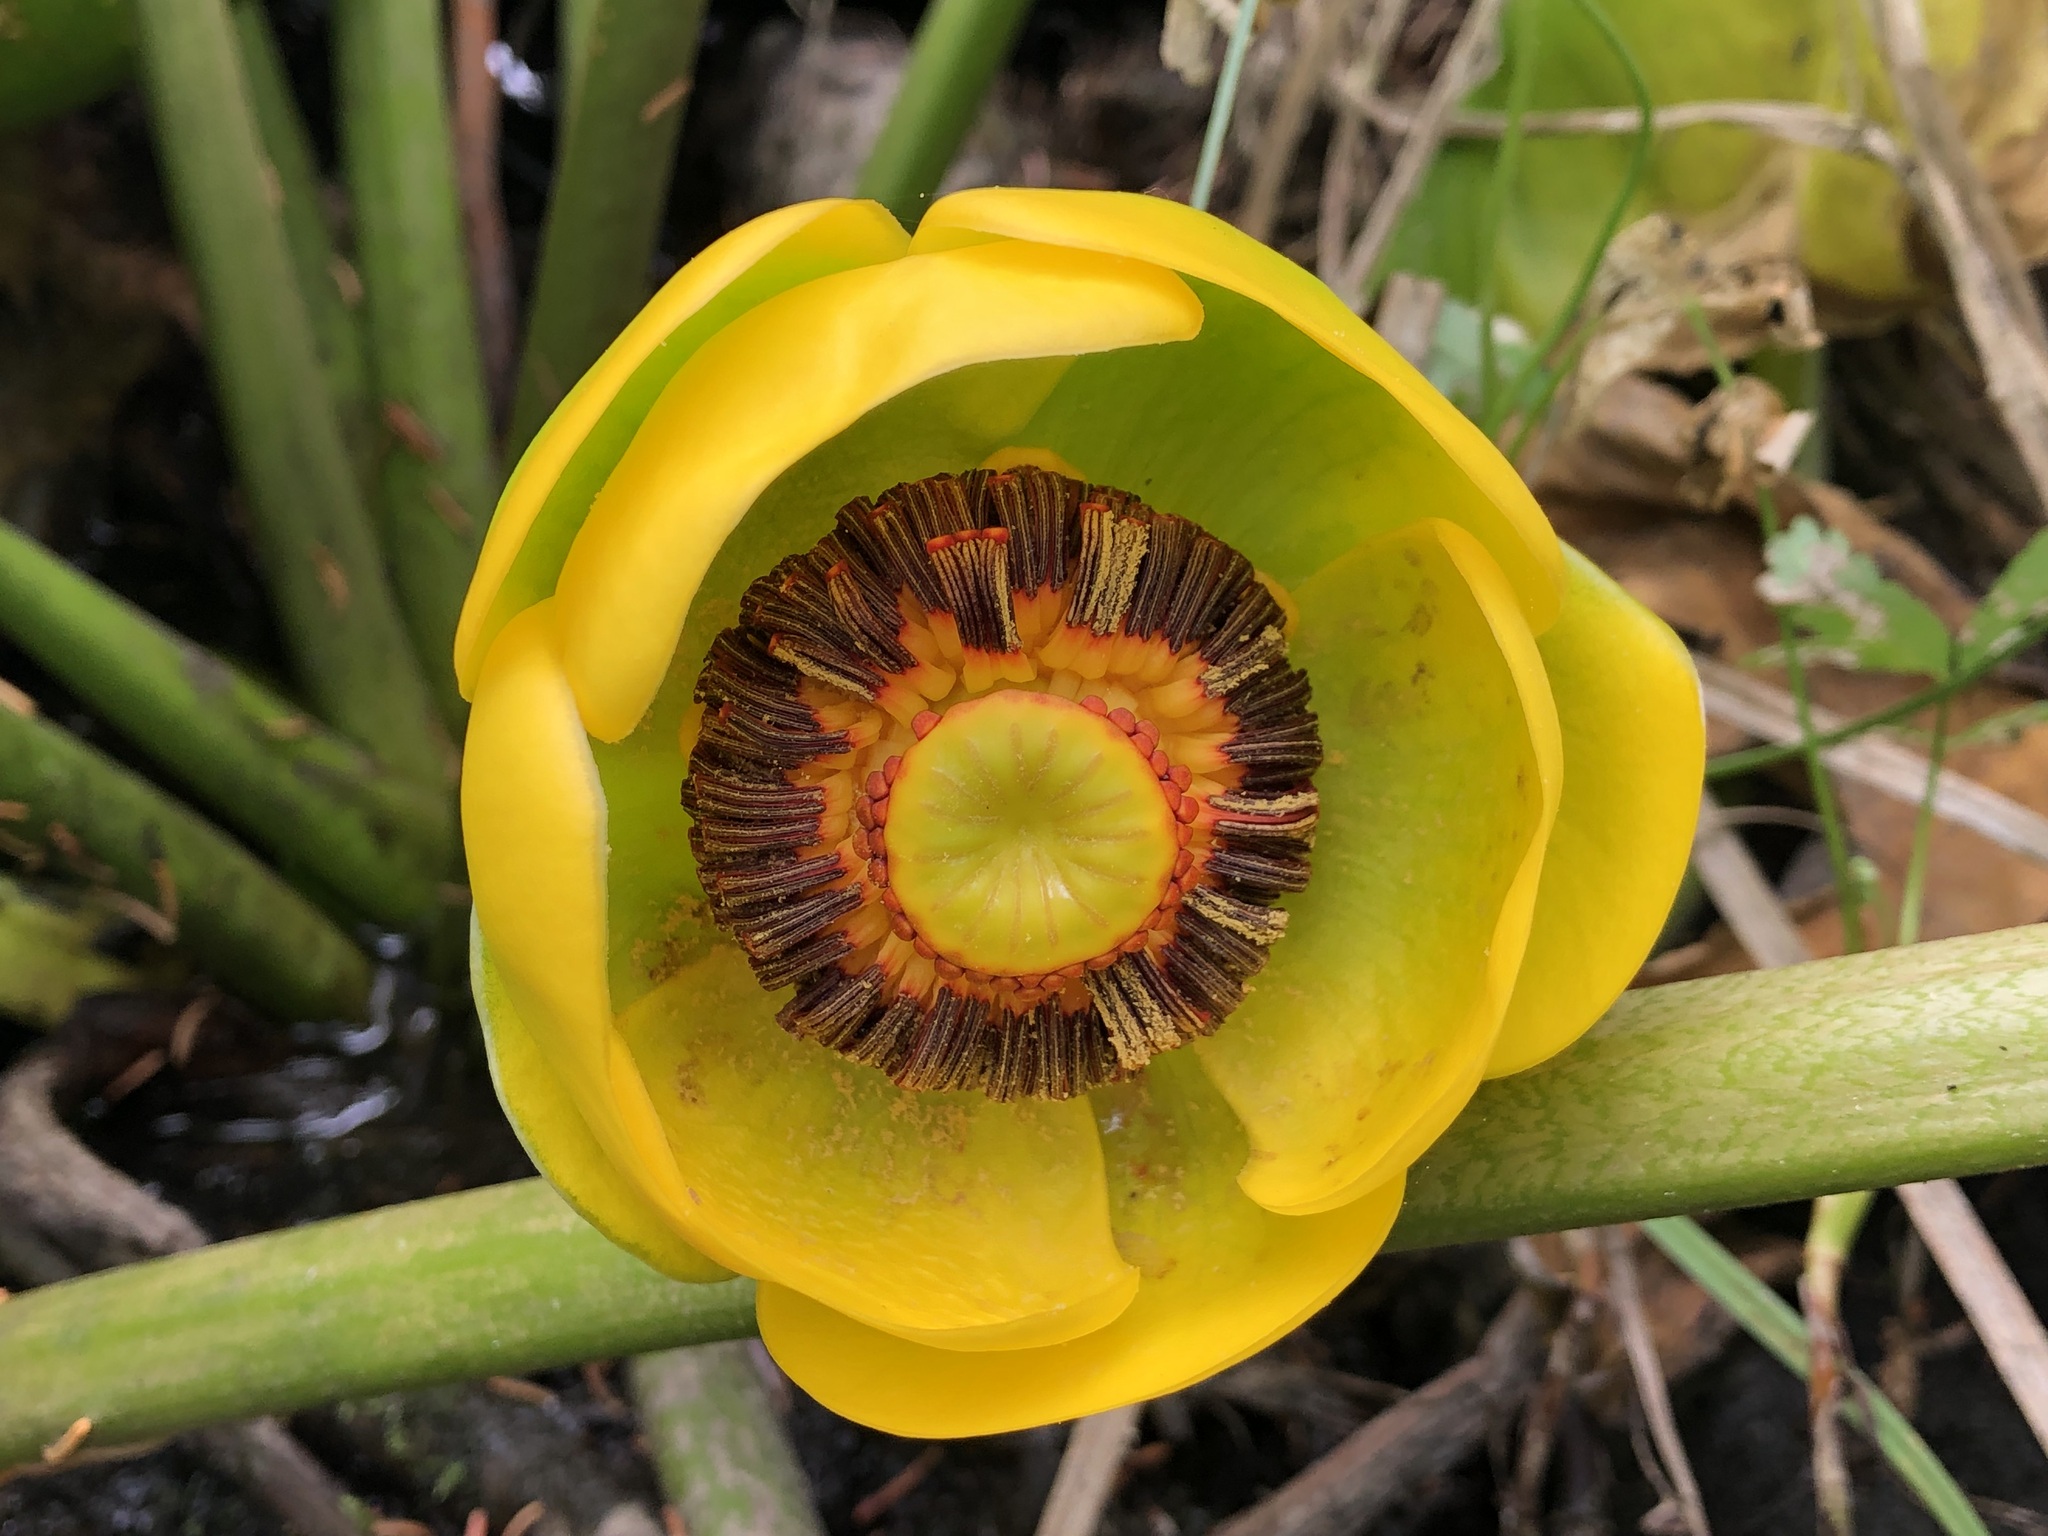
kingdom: Plantae
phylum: Tracheophyta
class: Magnoliopsida
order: Nymphaeales
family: Nymphaeaceae
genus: Nuphar
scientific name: Nuphar polysepala
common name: Rocky mountain cow-lily
